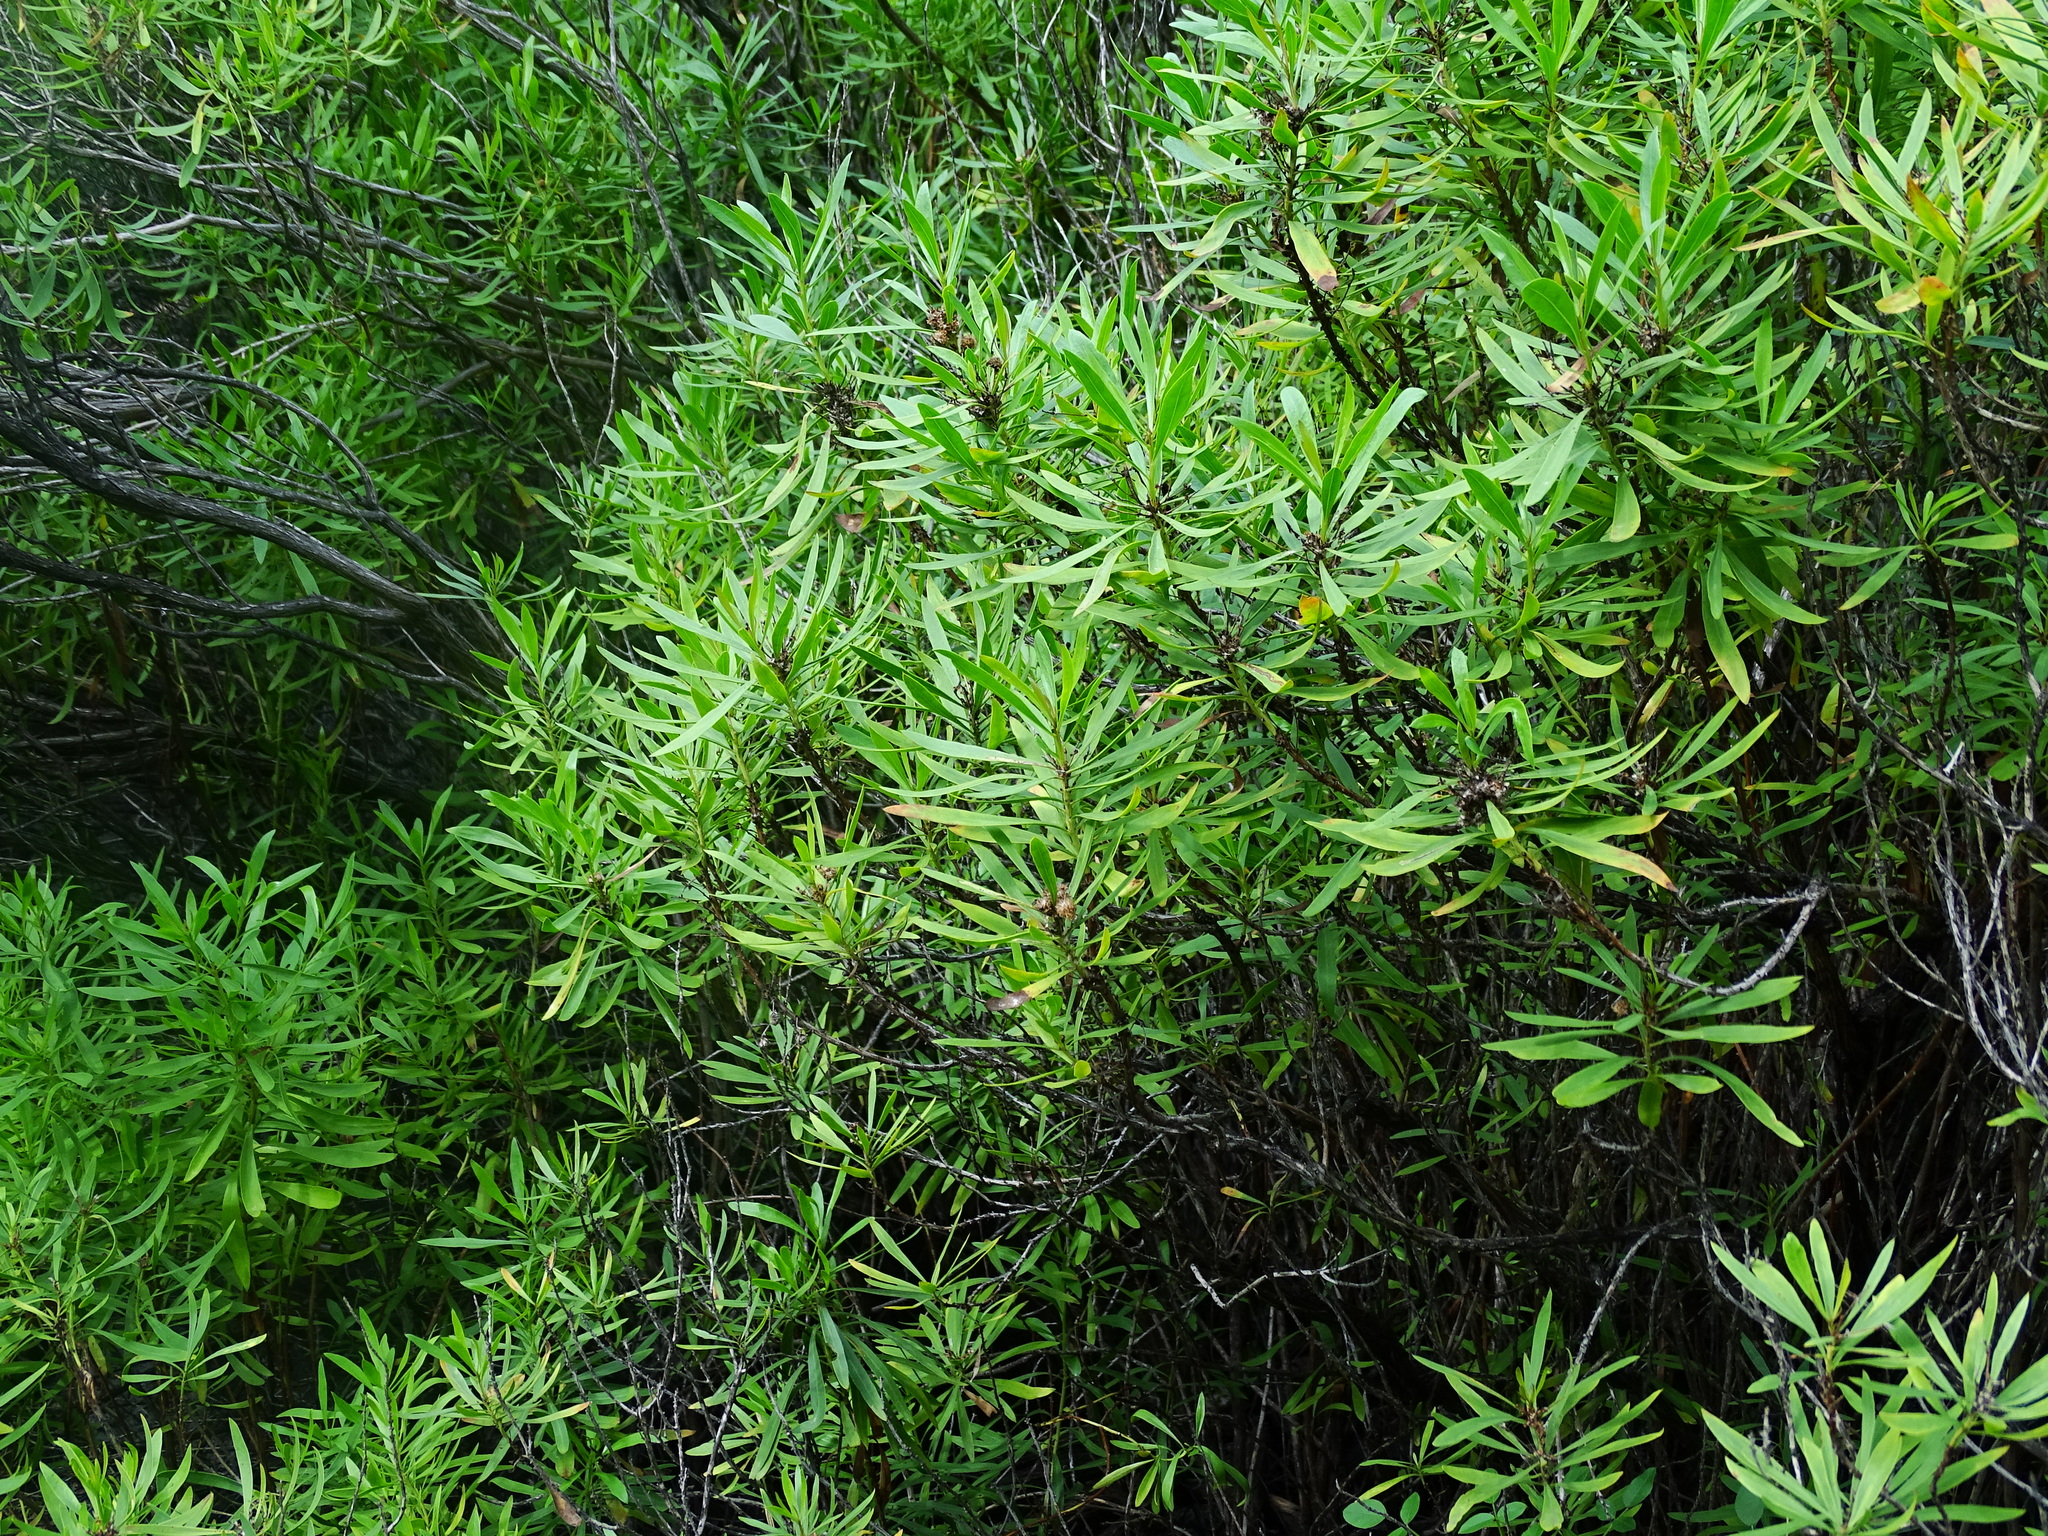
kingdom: Plantae
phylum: Tracheophyta
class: Magnoliopsida
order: Lamiales
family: Plantaginaceae
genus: Globularia
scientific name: Globularia salicina
